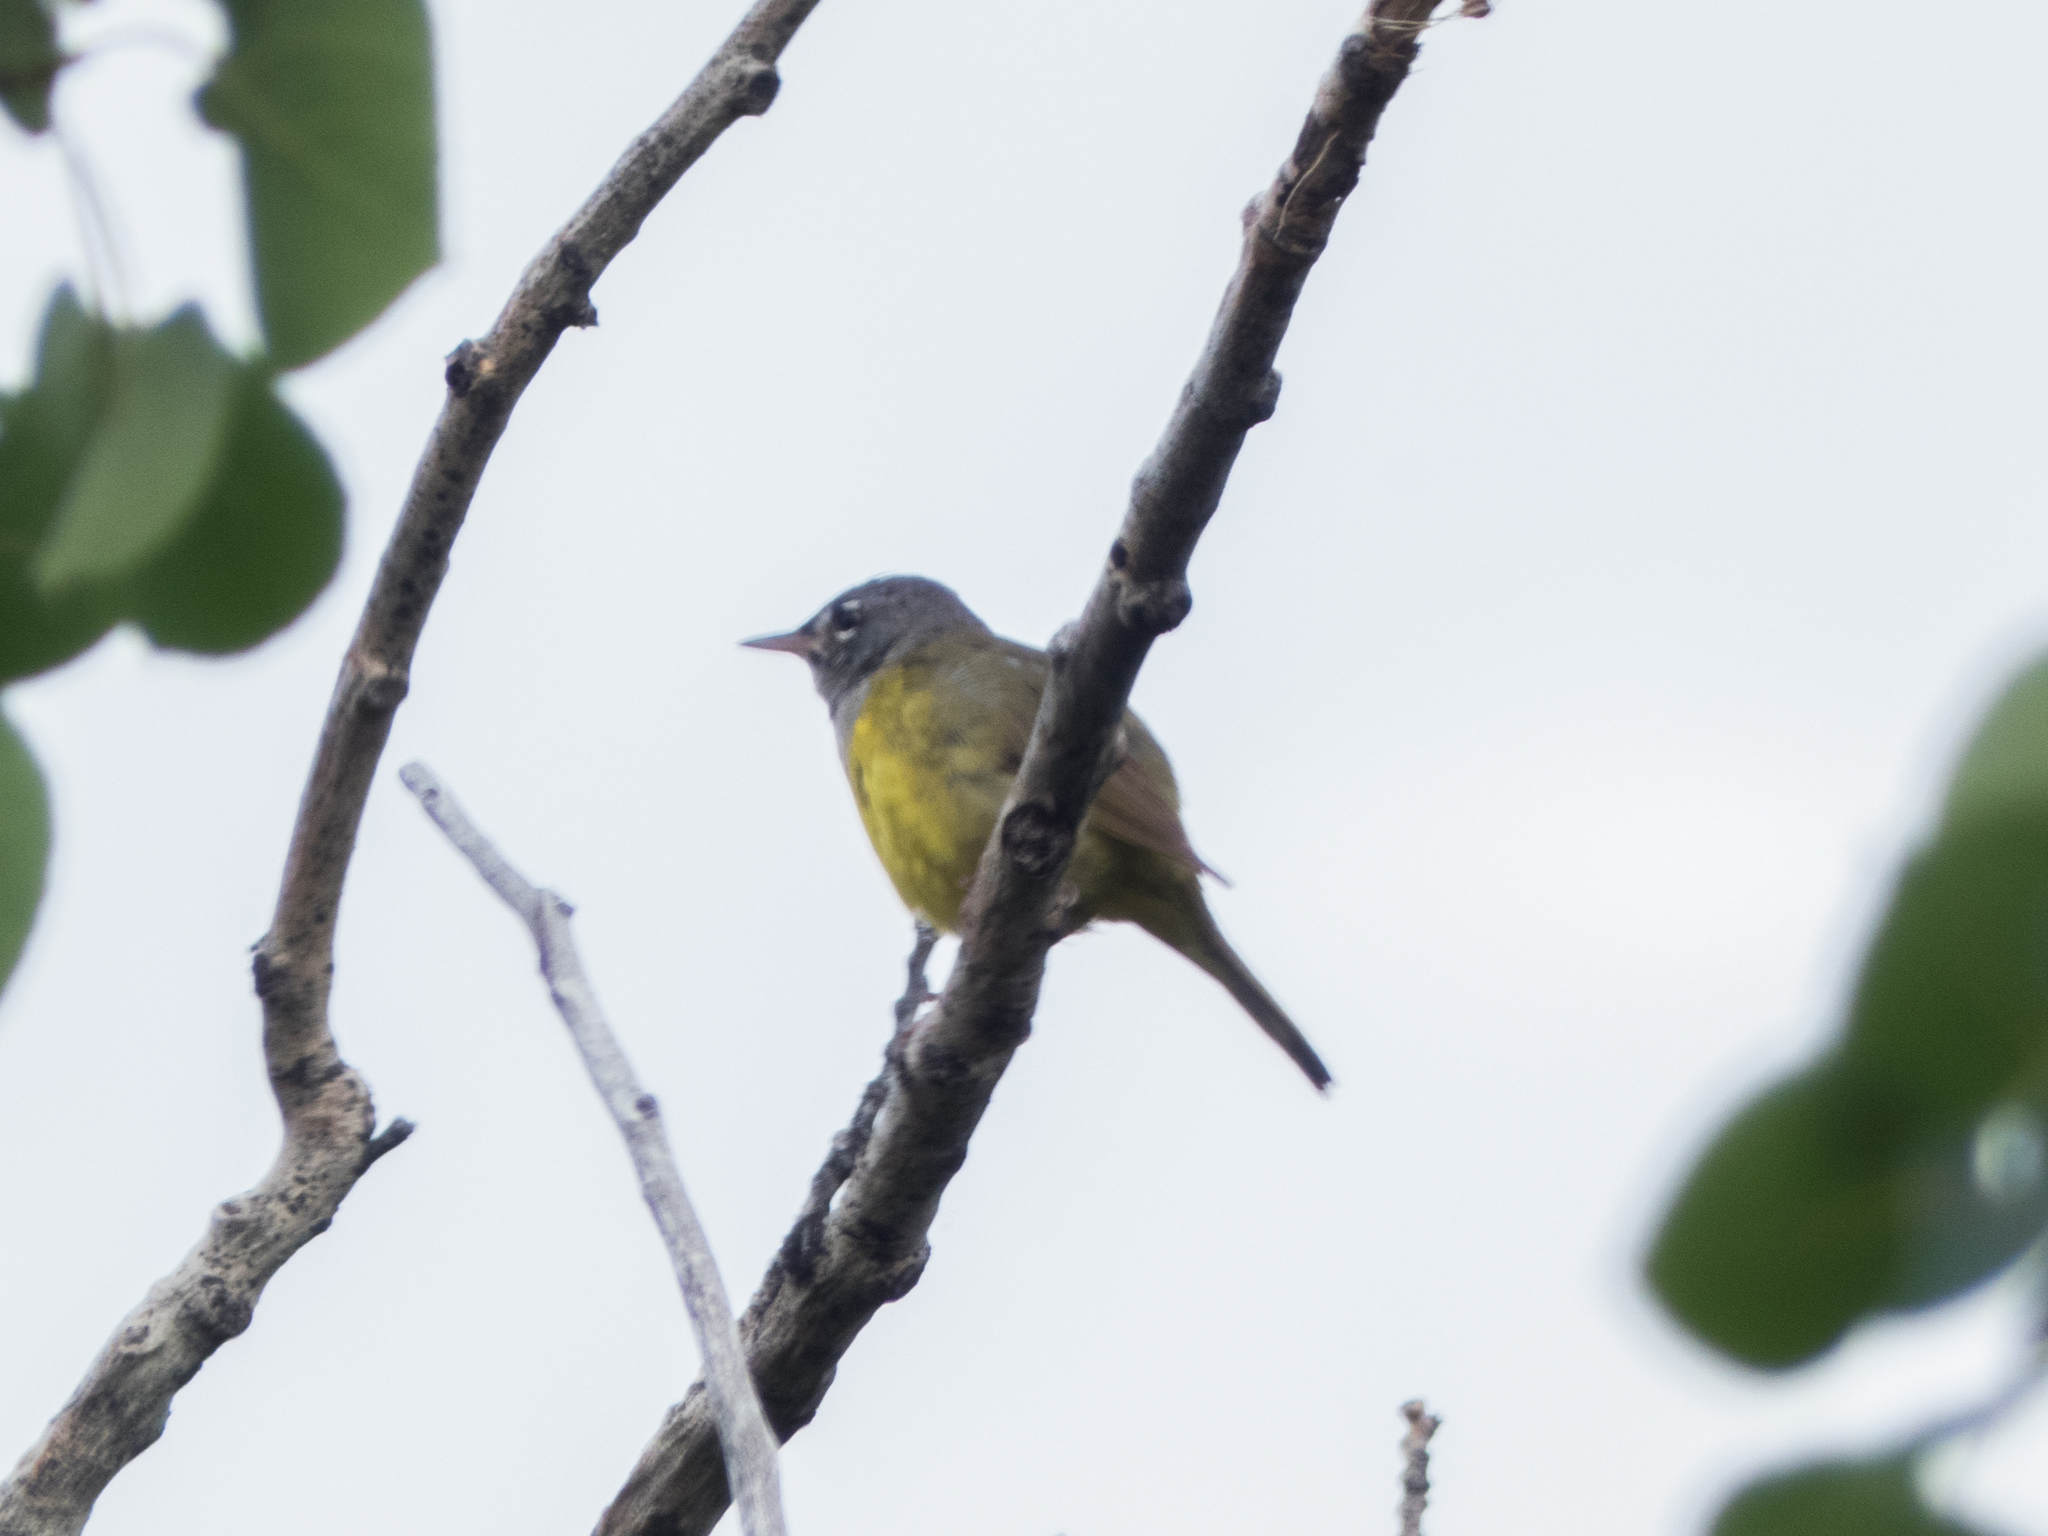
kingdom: Animalia
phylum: Chordata
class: Aves
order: Passeriformes
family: Parulidae
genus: Geothlypis
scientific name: Geothlypis tolmiei
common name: Macgillivray's warbler
